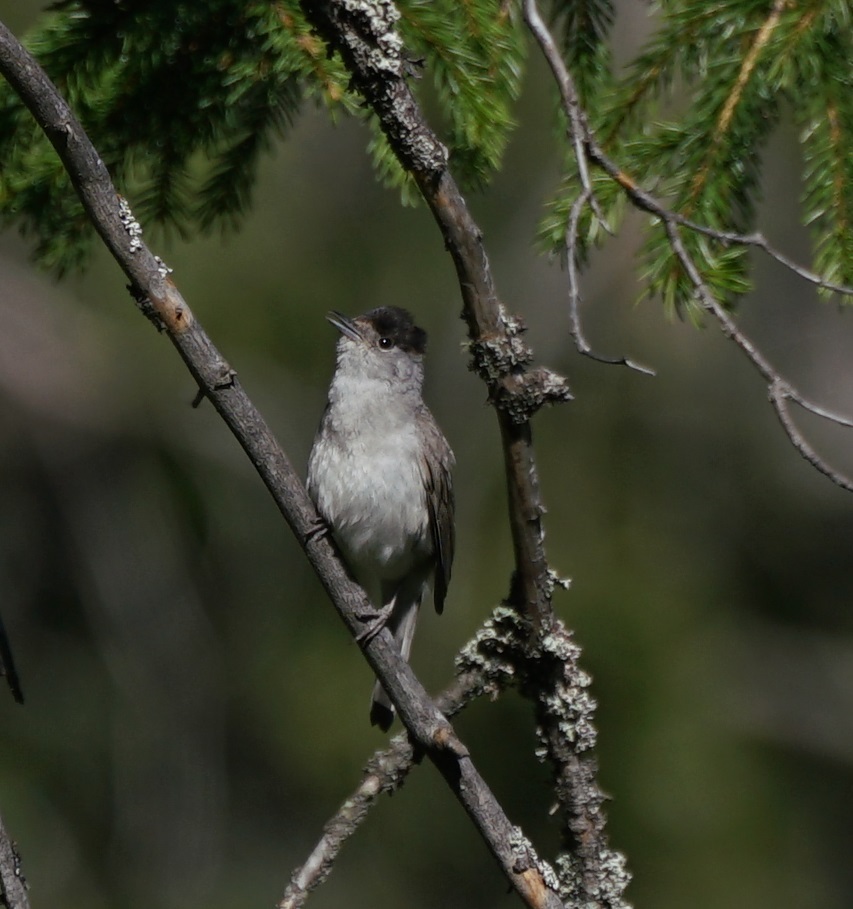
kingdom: Animalia
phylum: Chordata
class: Aves
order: Passeriformes
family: Sylviidae
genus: Sylvia
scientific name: Sylvia atricapilla
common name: Eurasian blackcap
